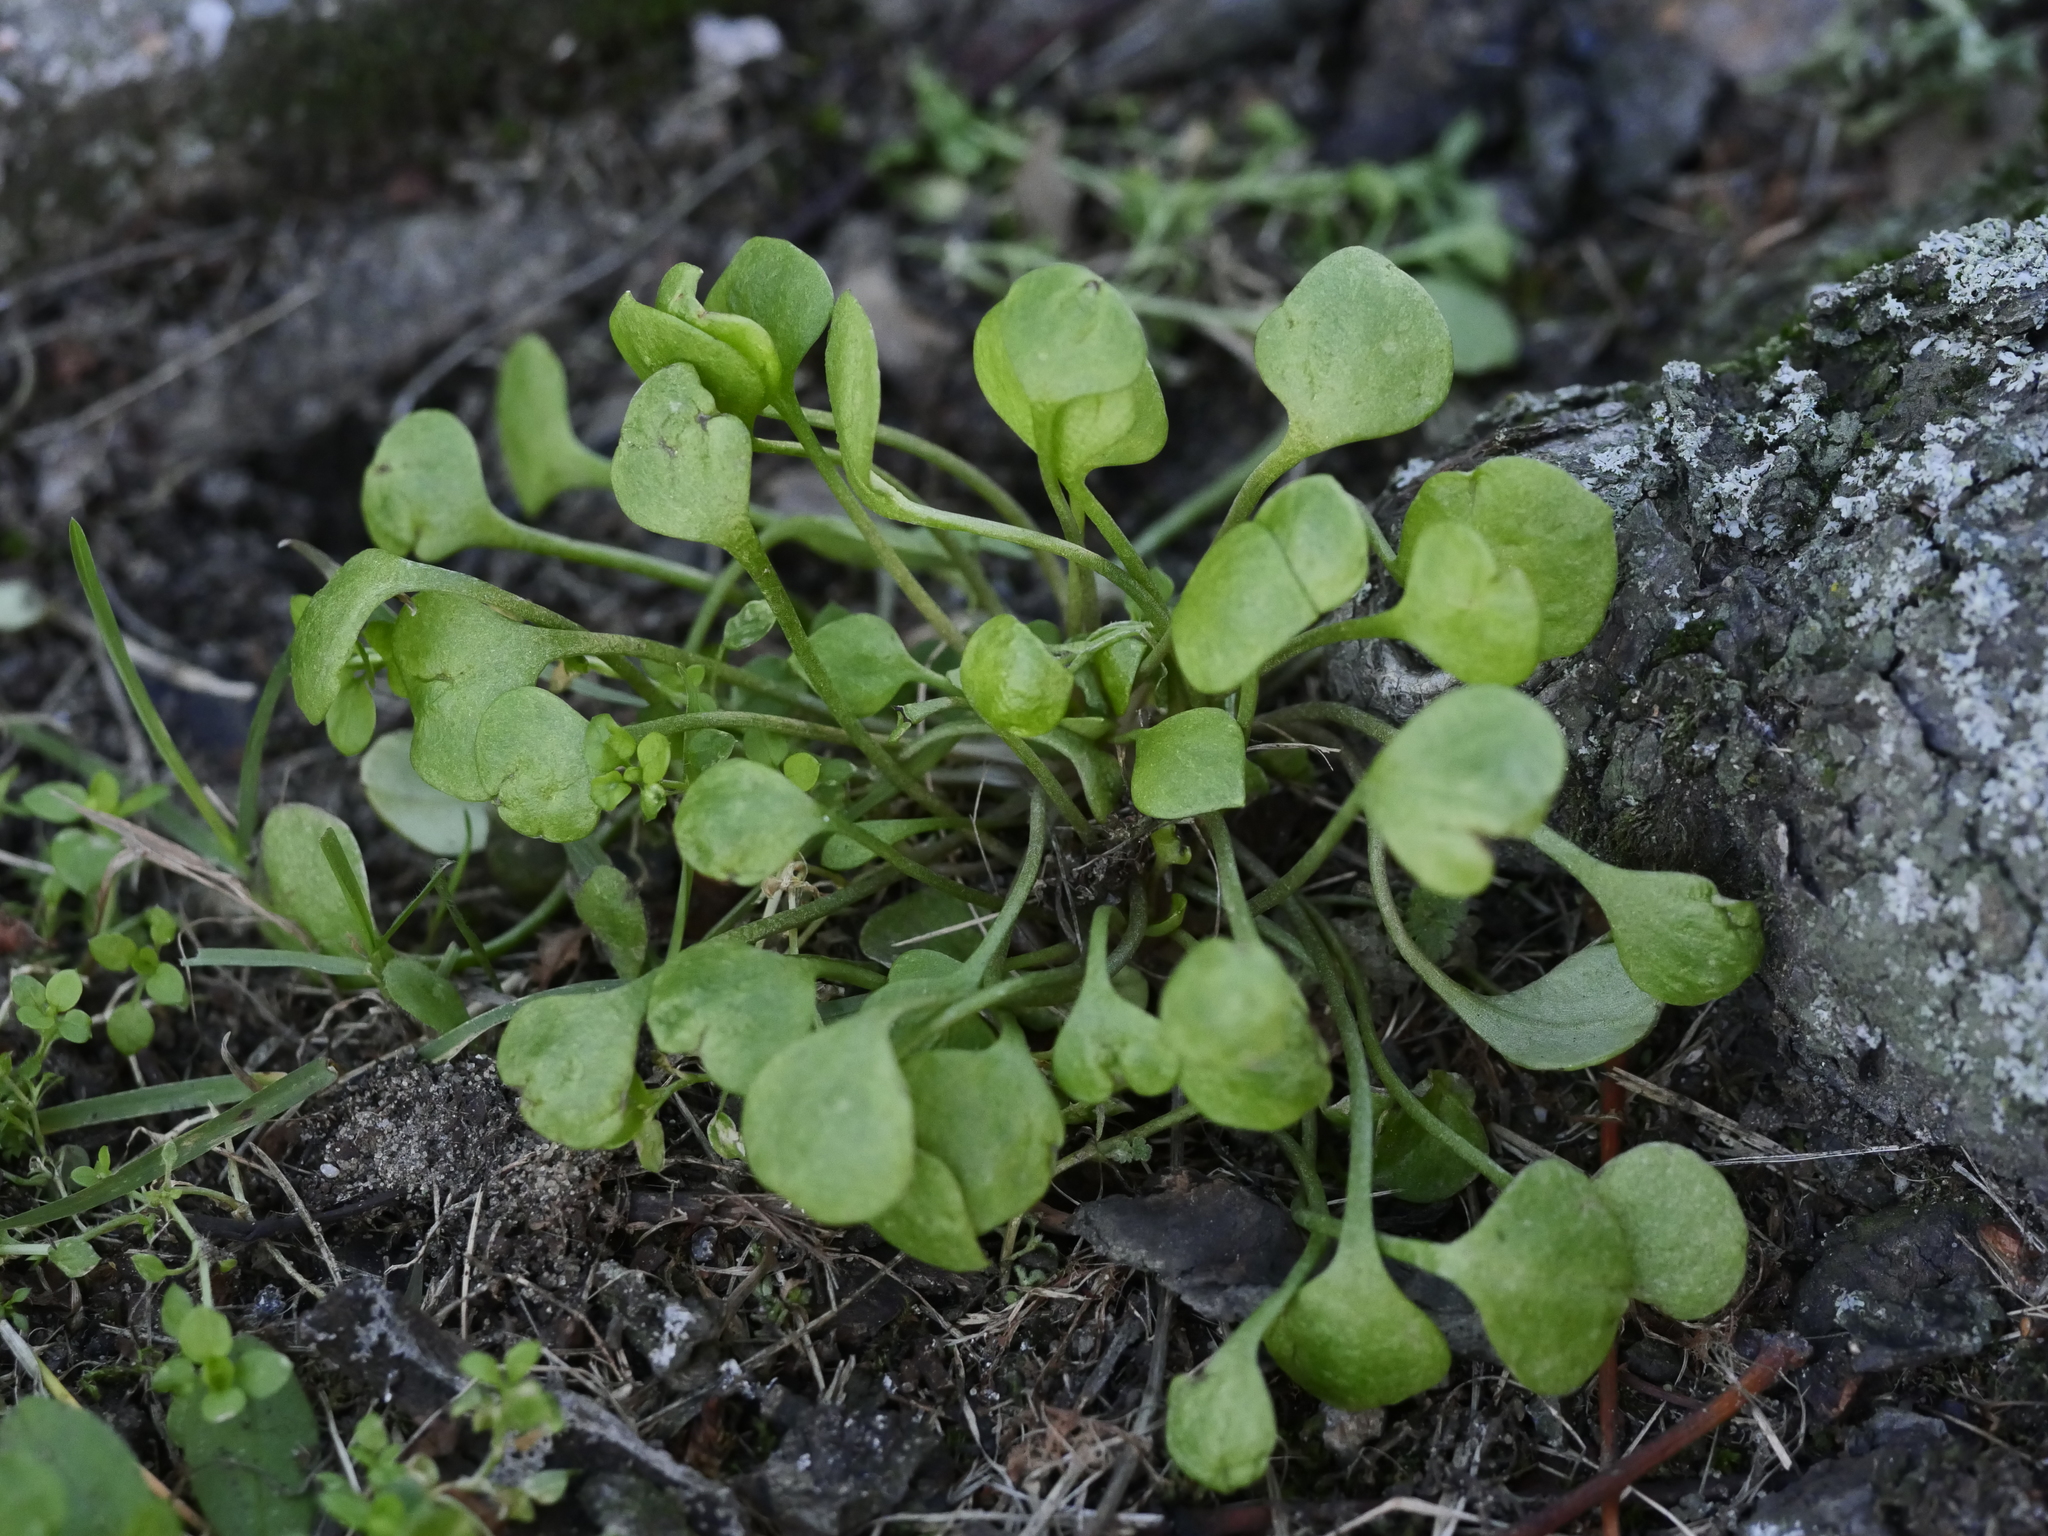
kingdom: Plantae
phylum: Tracheophyta
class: Magnoliopsida
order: Caryophyllales
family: Montiaceae
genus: Claytonia
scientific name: Claytonia perfoliata
